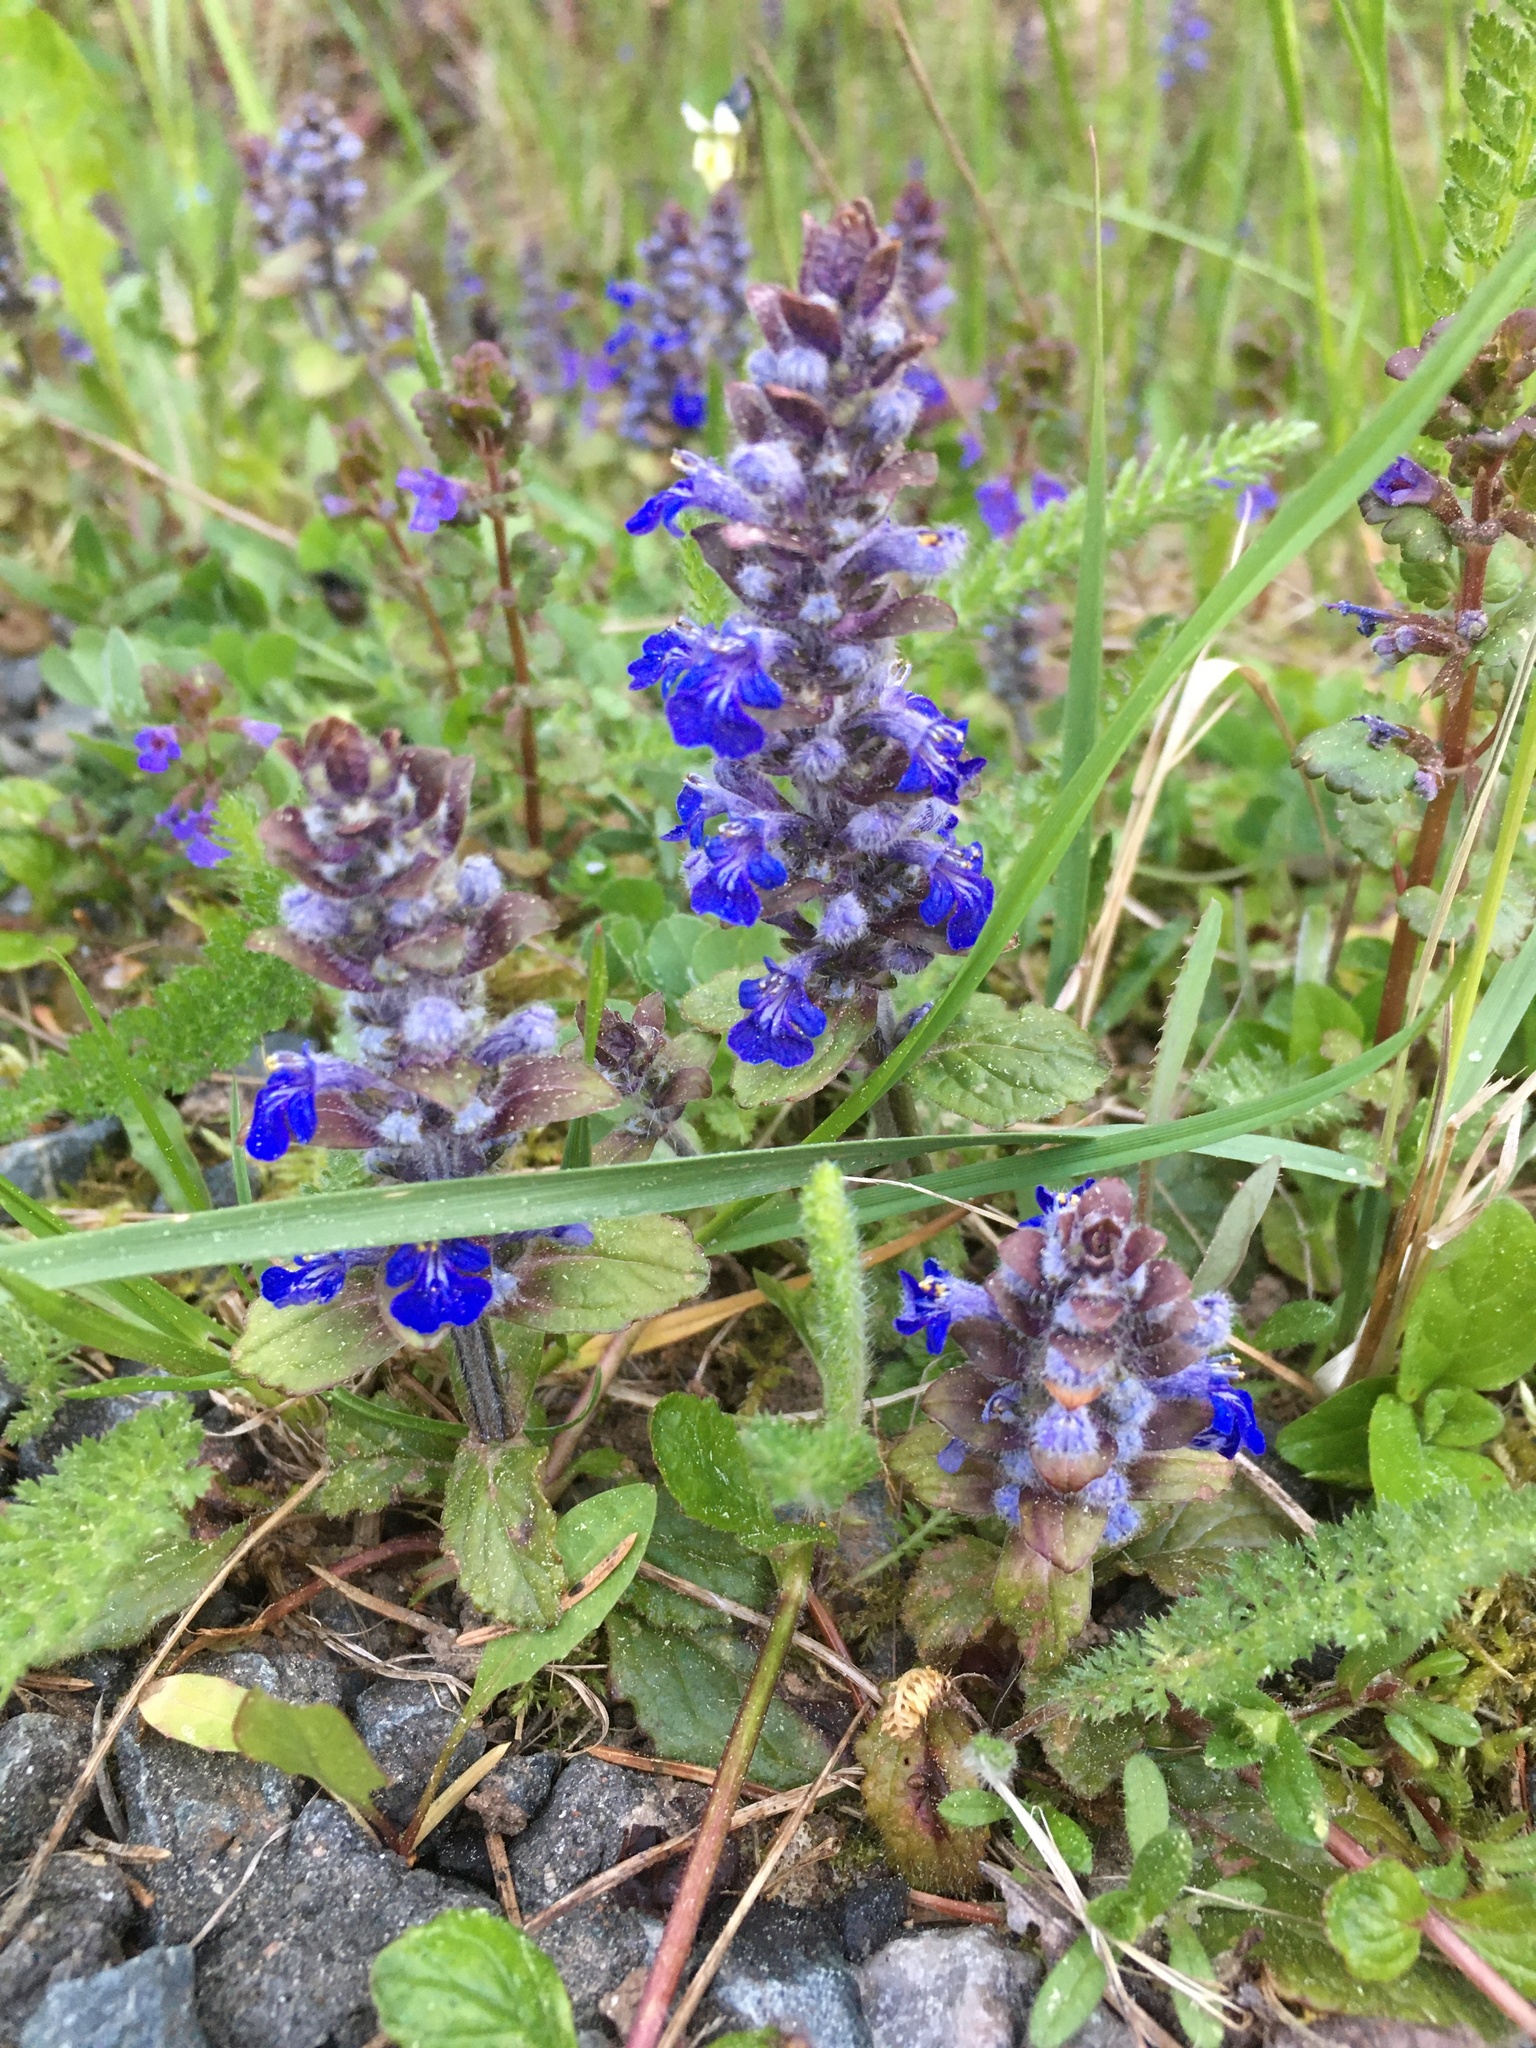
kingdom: Plantae
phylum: Tracheophyta
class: Magnoliopsida
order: Lamiales
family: Lamiaceae
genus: Ajuga
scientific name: Ajuga reptans
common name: Bugle
